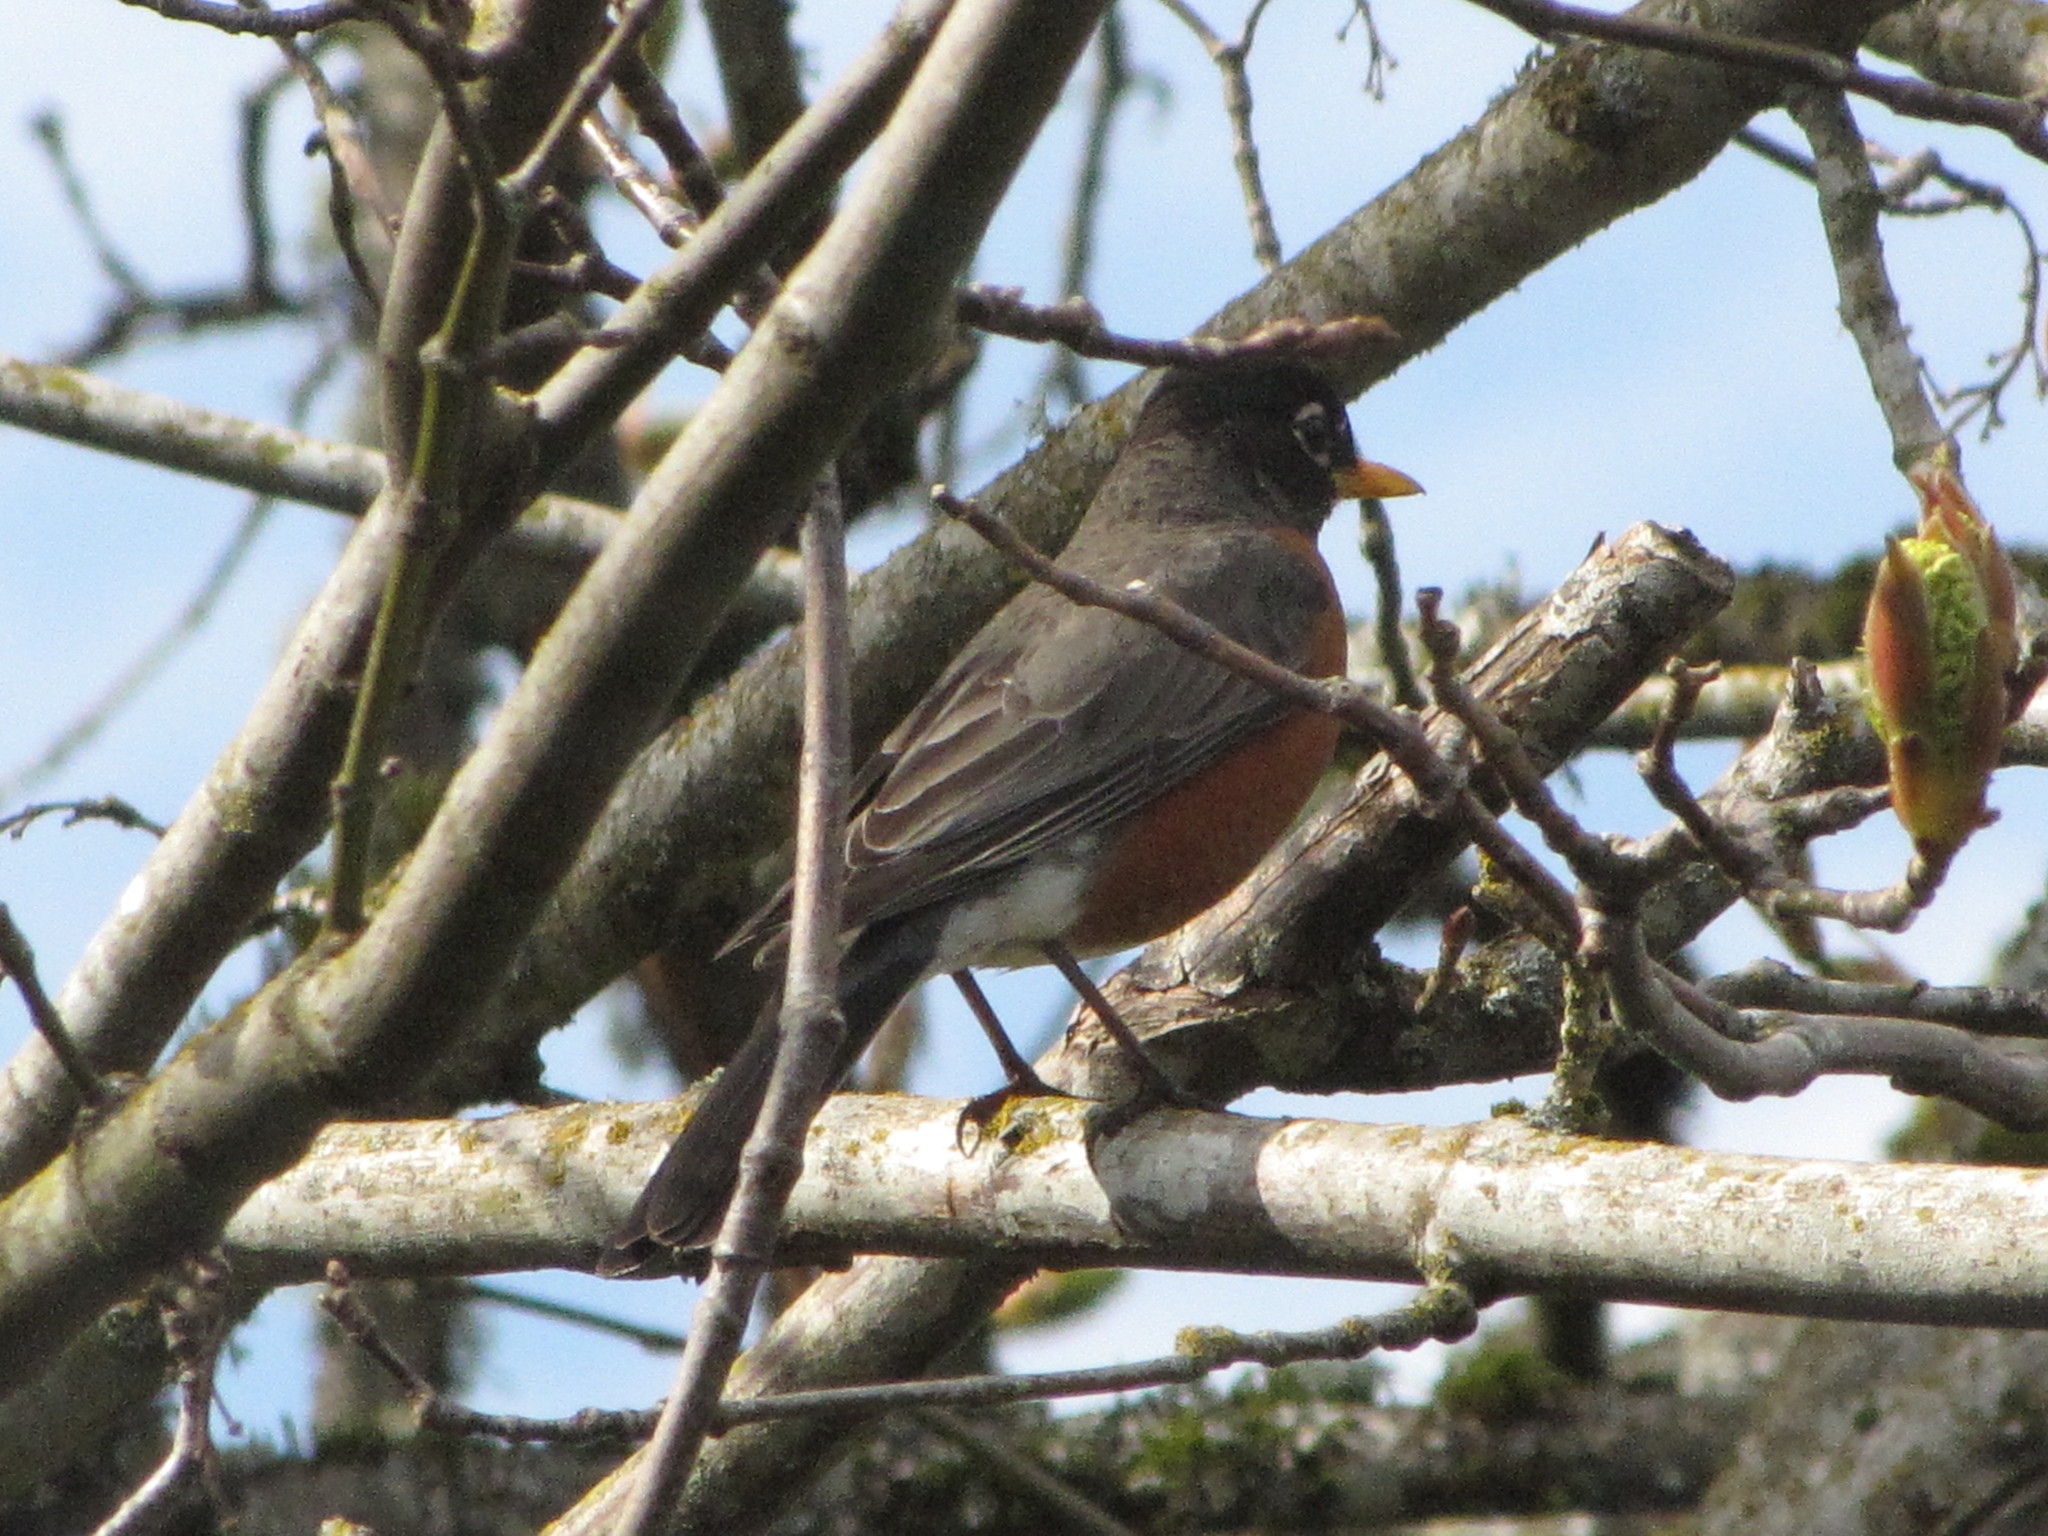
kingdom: Animalia
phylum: Chordata
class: Aves
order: Passeriformes
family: Turdidae
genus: Turdus
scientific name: Turdus migratorius
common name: American robin
